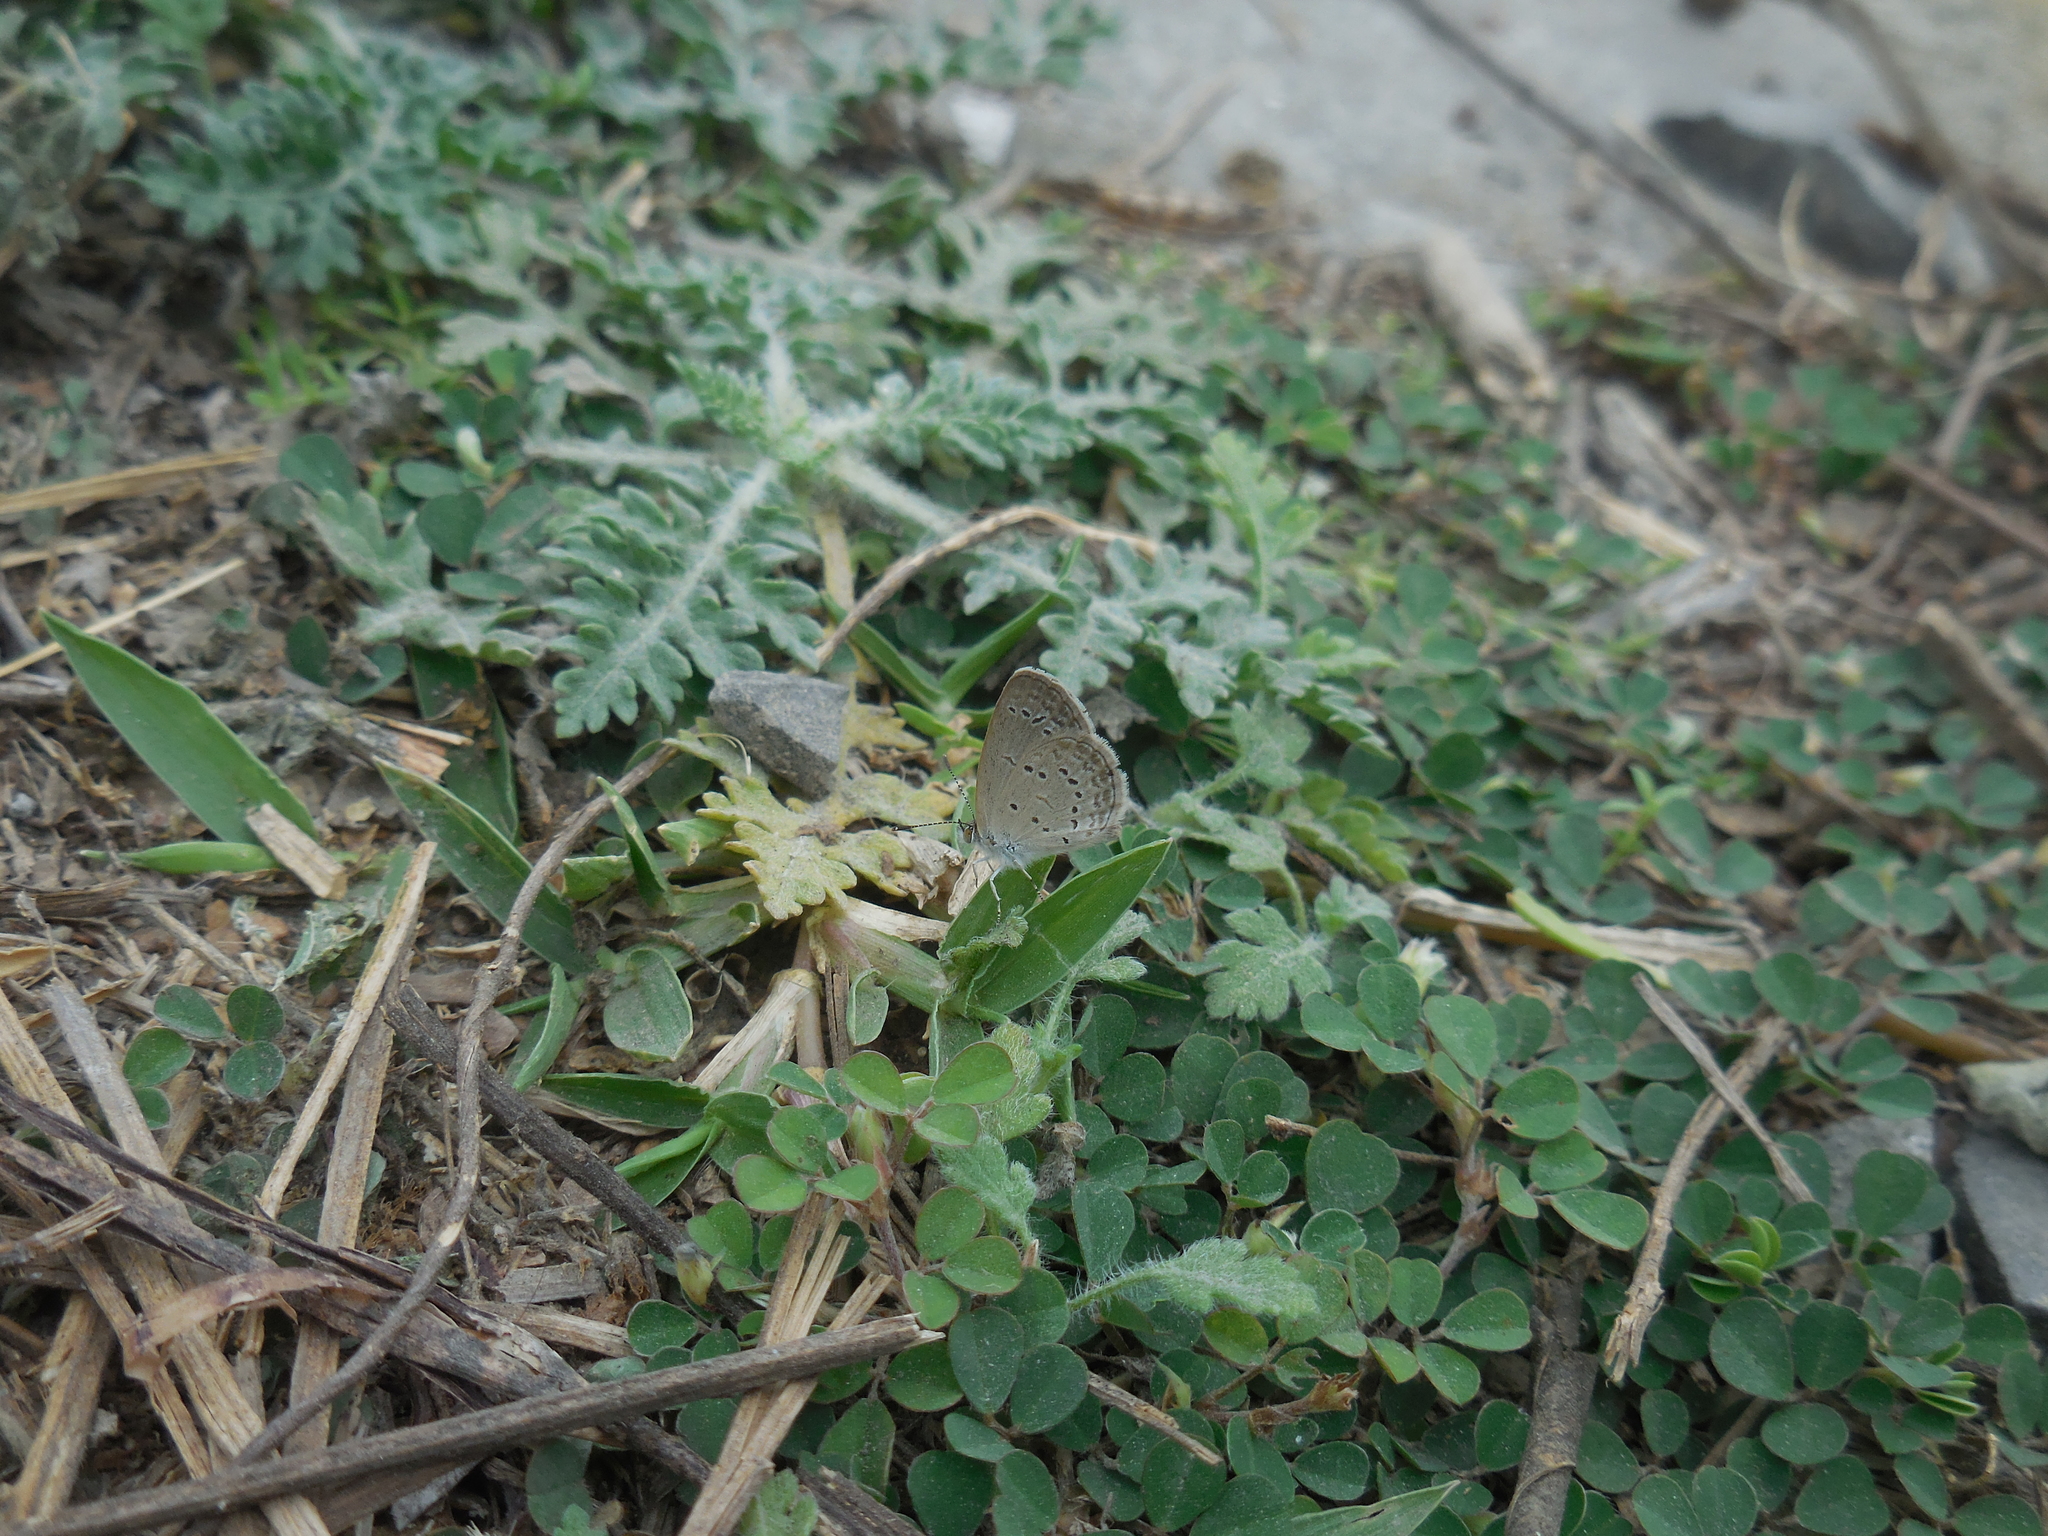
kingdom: Animalia
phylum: Arthropoda
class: Insecta
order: Lepidoptera
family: Lycaenidae
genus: Zizina
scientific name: Zizina otis
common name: Lesser grass blue
